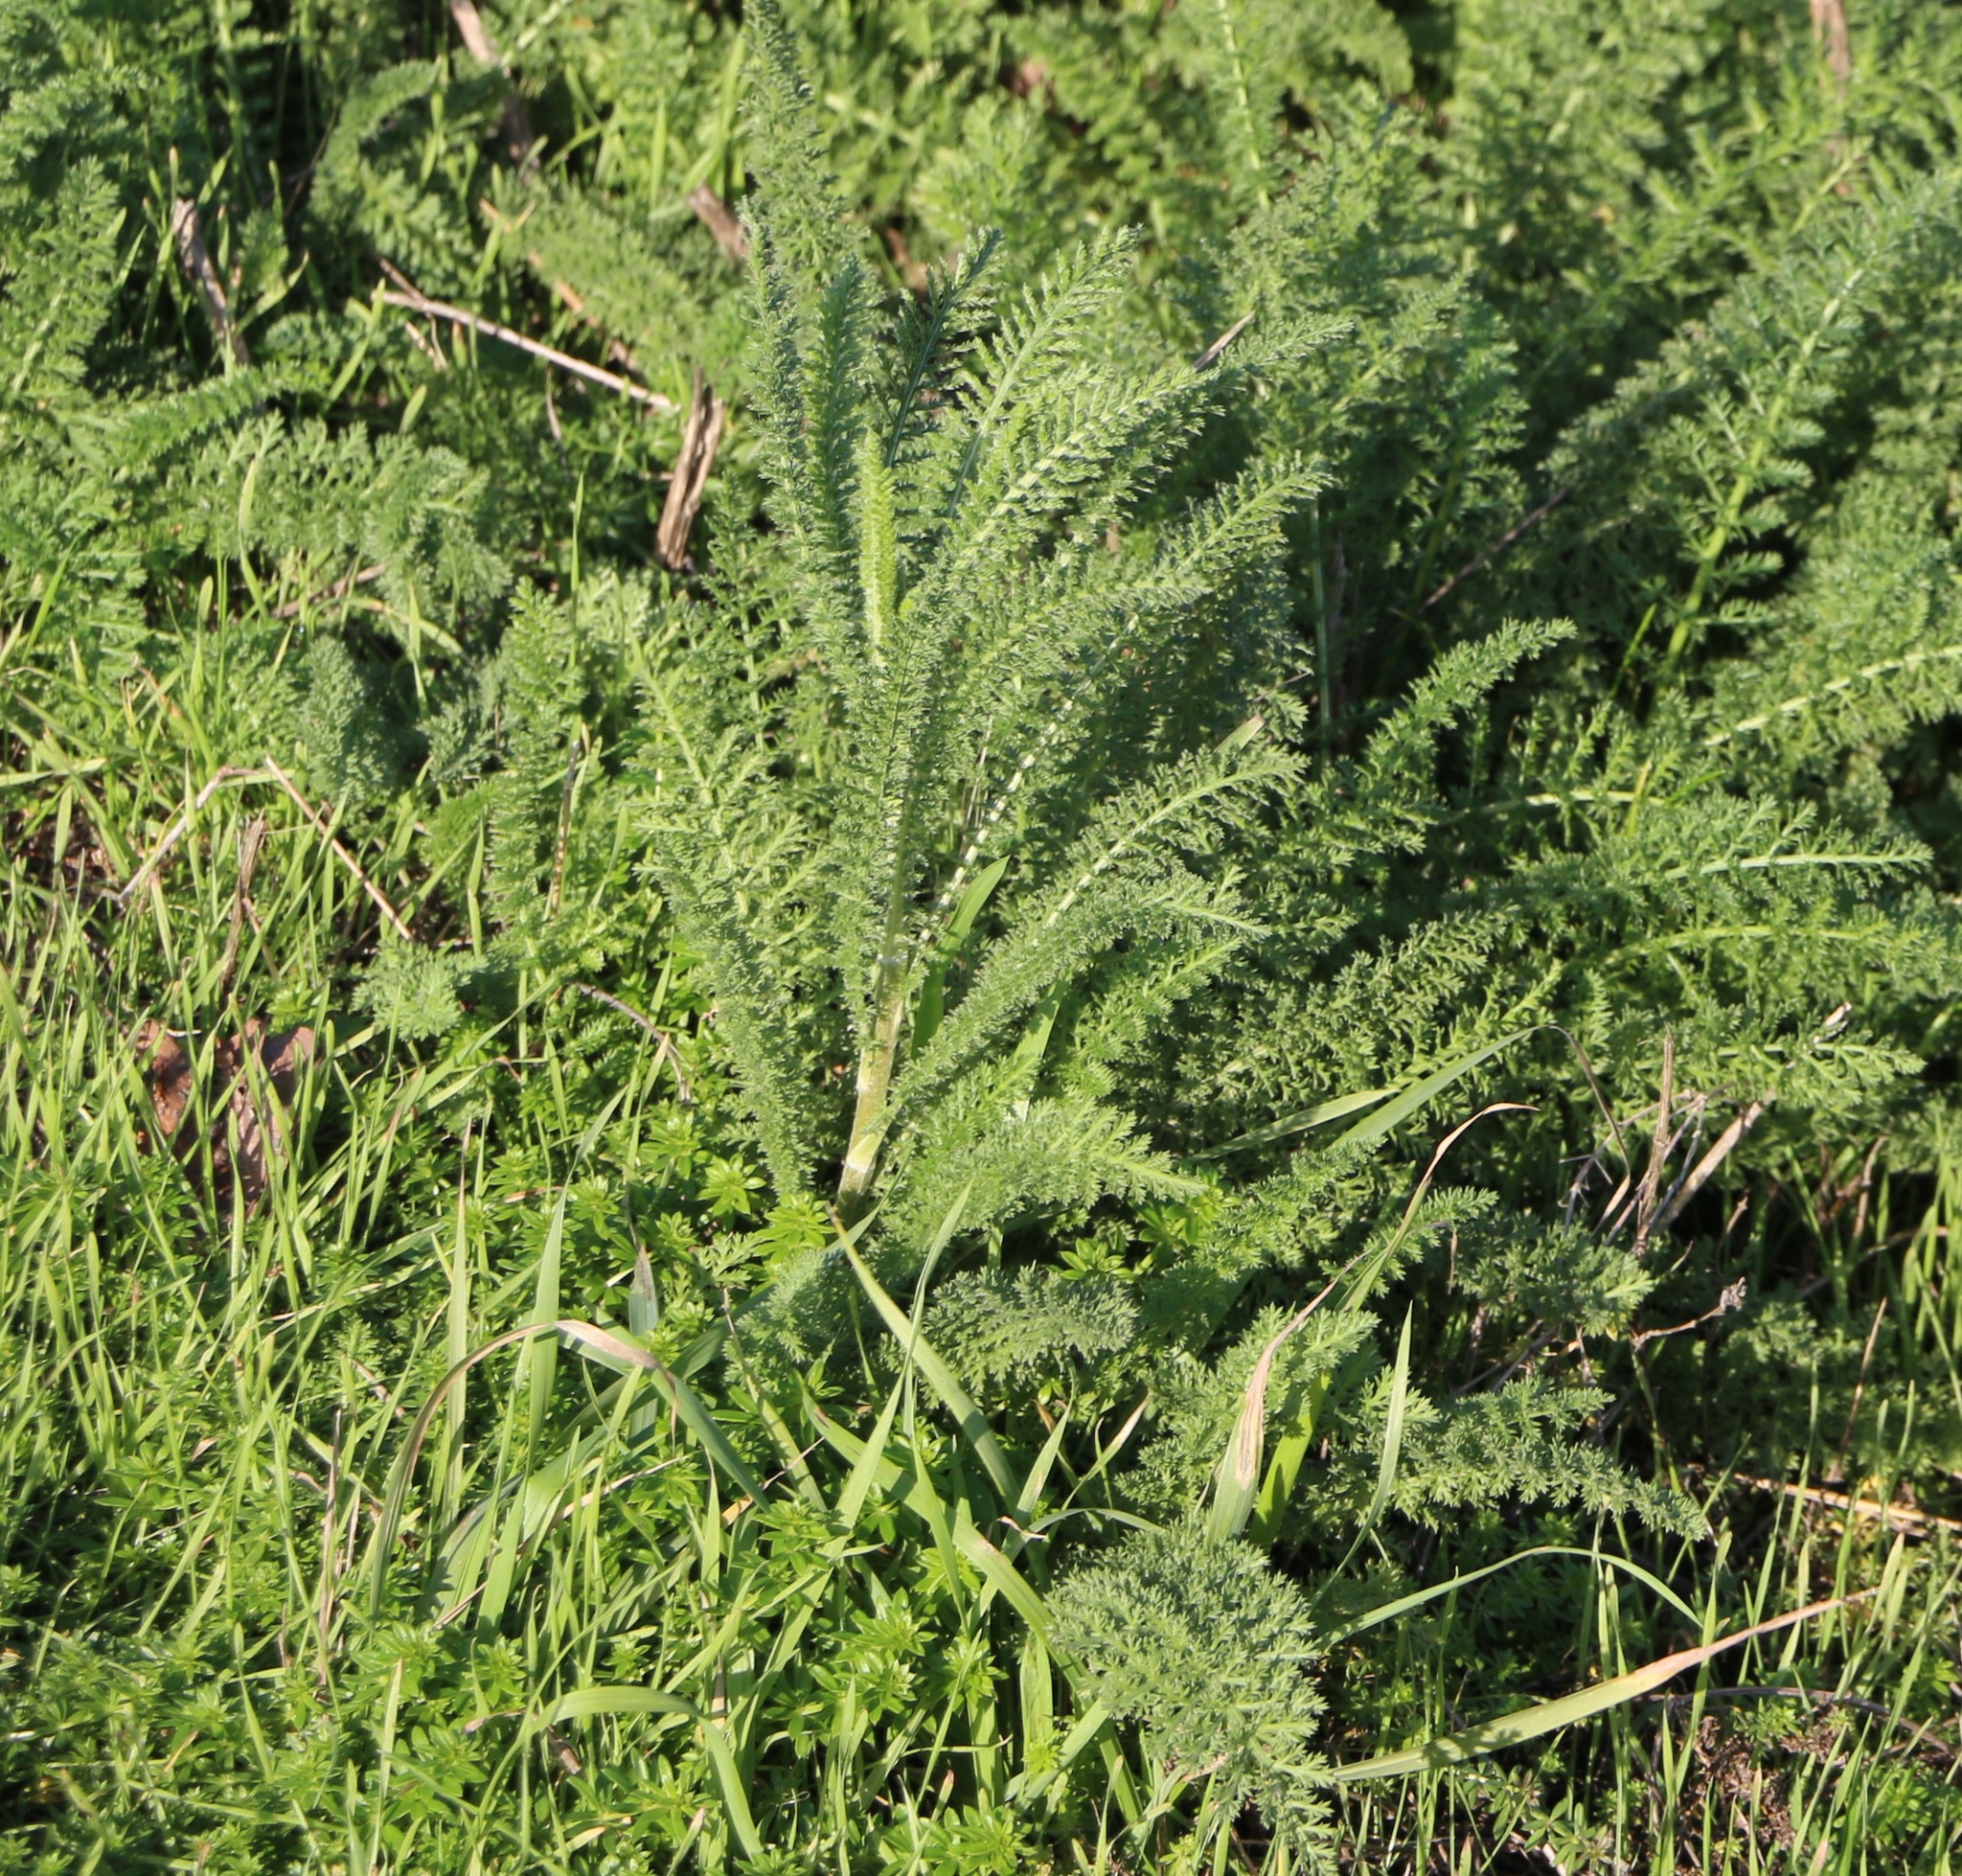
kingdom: Plantae
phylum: Tracheophyta
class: Magnoliopsida
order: Asterales
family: Asteraceae
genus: Achillea
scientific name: Achillea millefolium
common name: Yarrow
